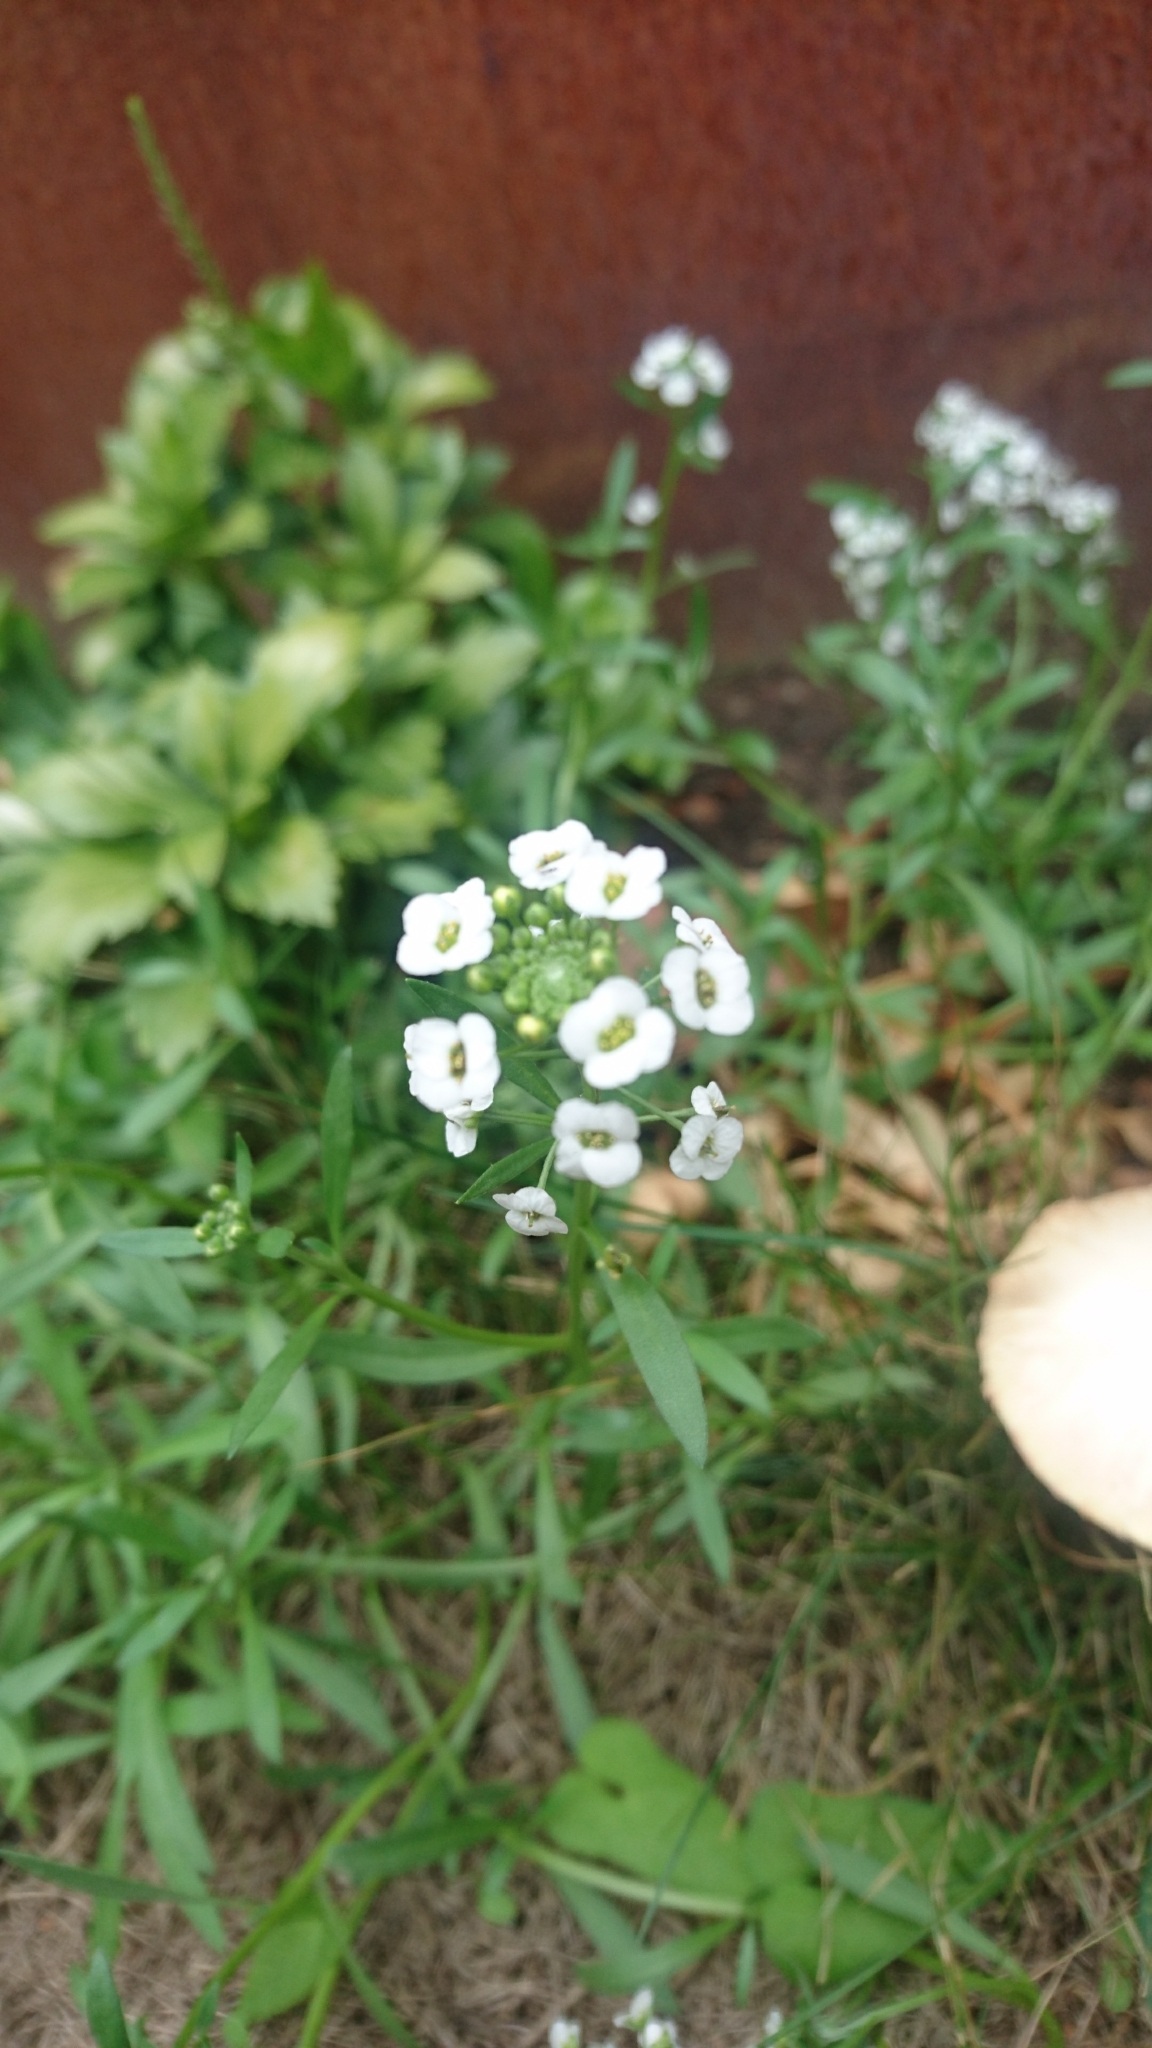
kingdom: Plantae
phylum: Tracheophyta
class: Magnoliopsida
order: Brassicales
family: Brassicaceae
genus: Lobularia
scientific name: Lobularia maritima
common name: Sweet alison
